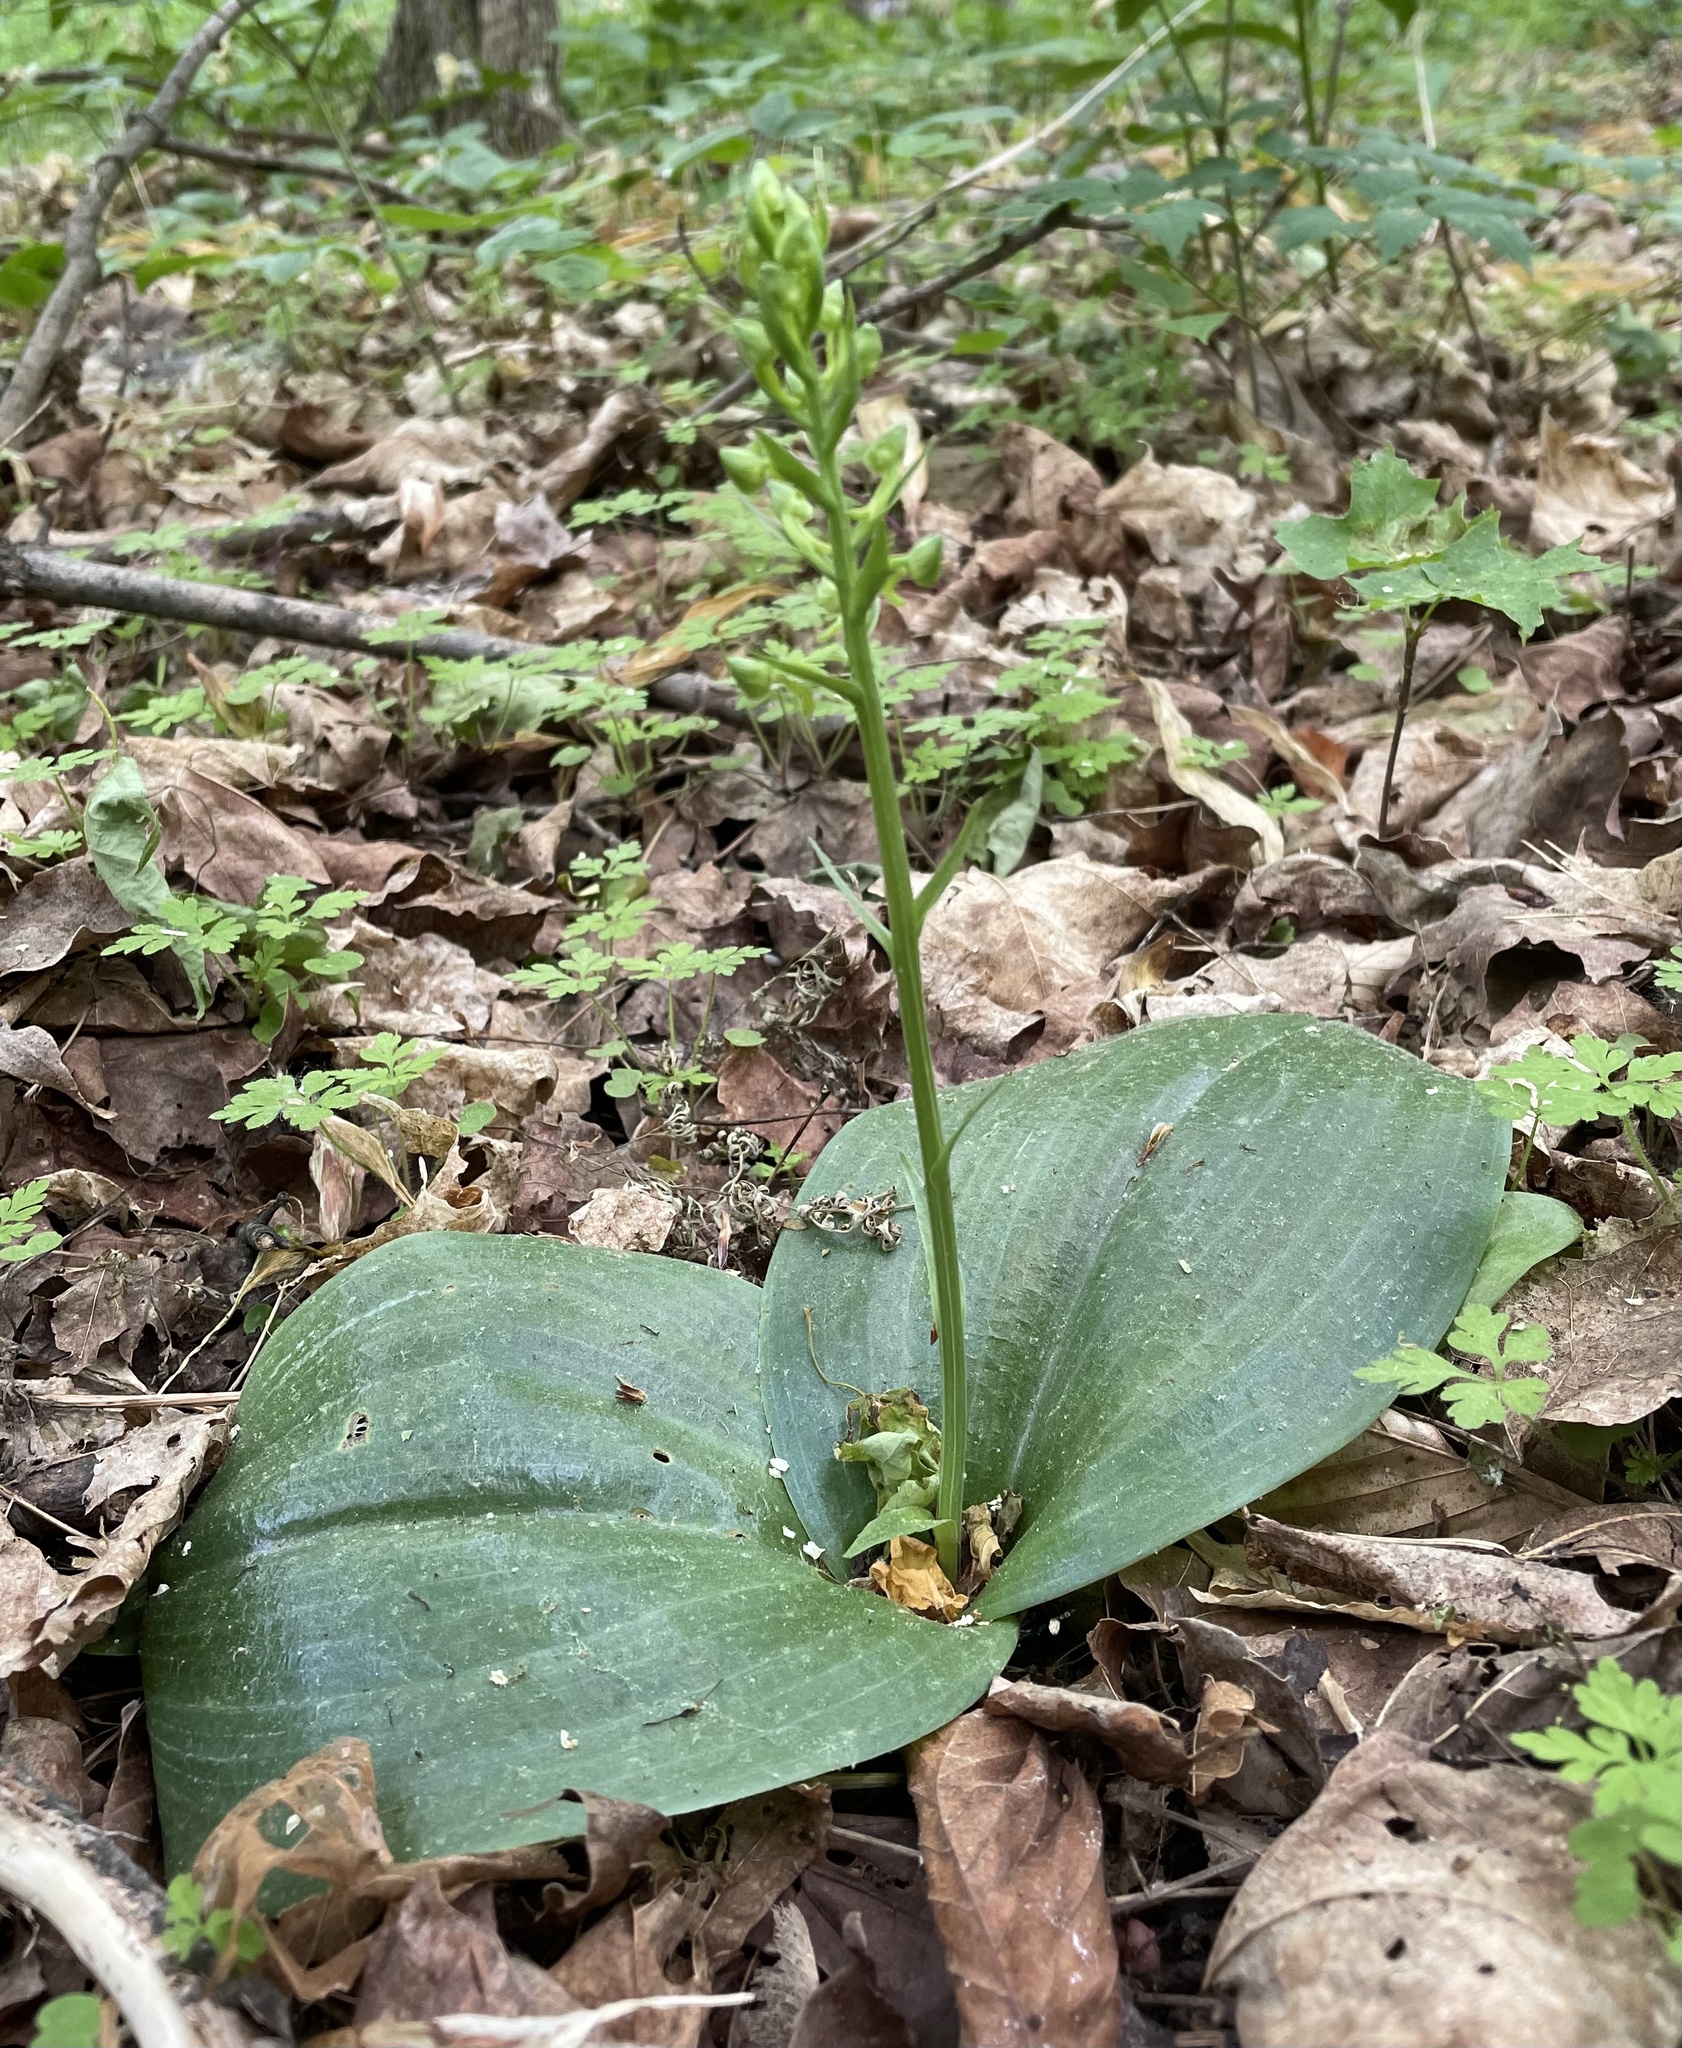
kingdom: Plantae
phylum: Tracheophyta
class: Liliopsida
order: Asparagales
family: Orchidaceae
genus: Platanthera
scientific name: Platanthera orbiculata
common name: Large round-leaved orchid
